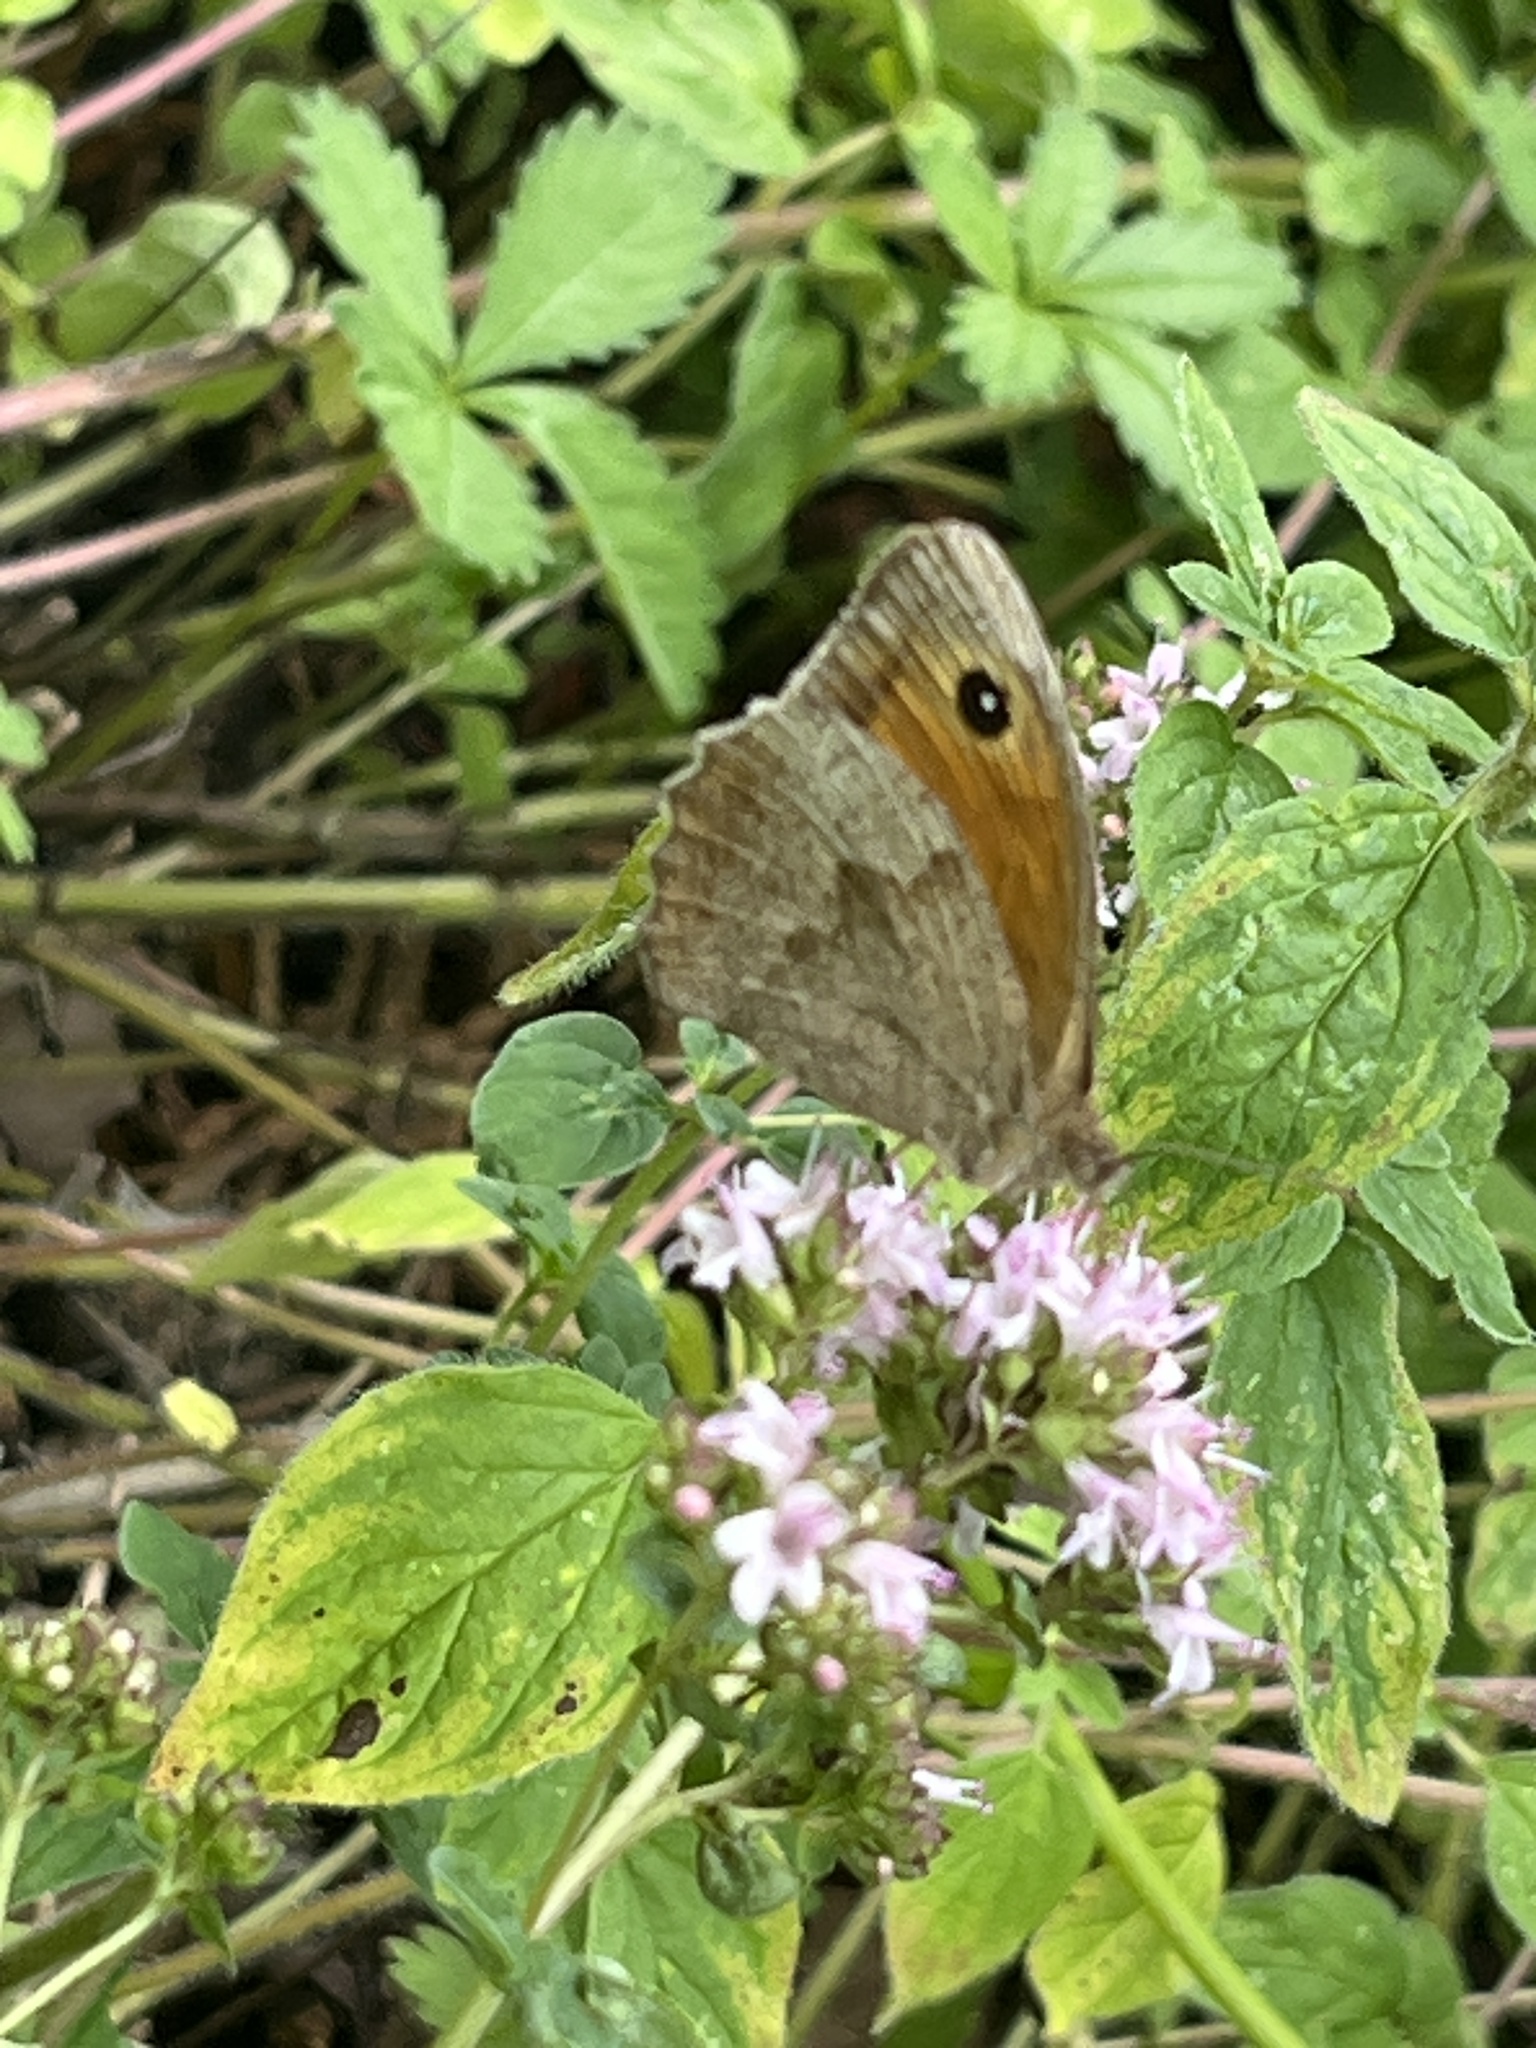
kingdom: Animalia
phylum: Arthropoda
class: Insecta
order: Lepidoptera
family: Nymphalidae
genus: Maniola
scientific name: Maniola jurtina
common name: Meadow brown
